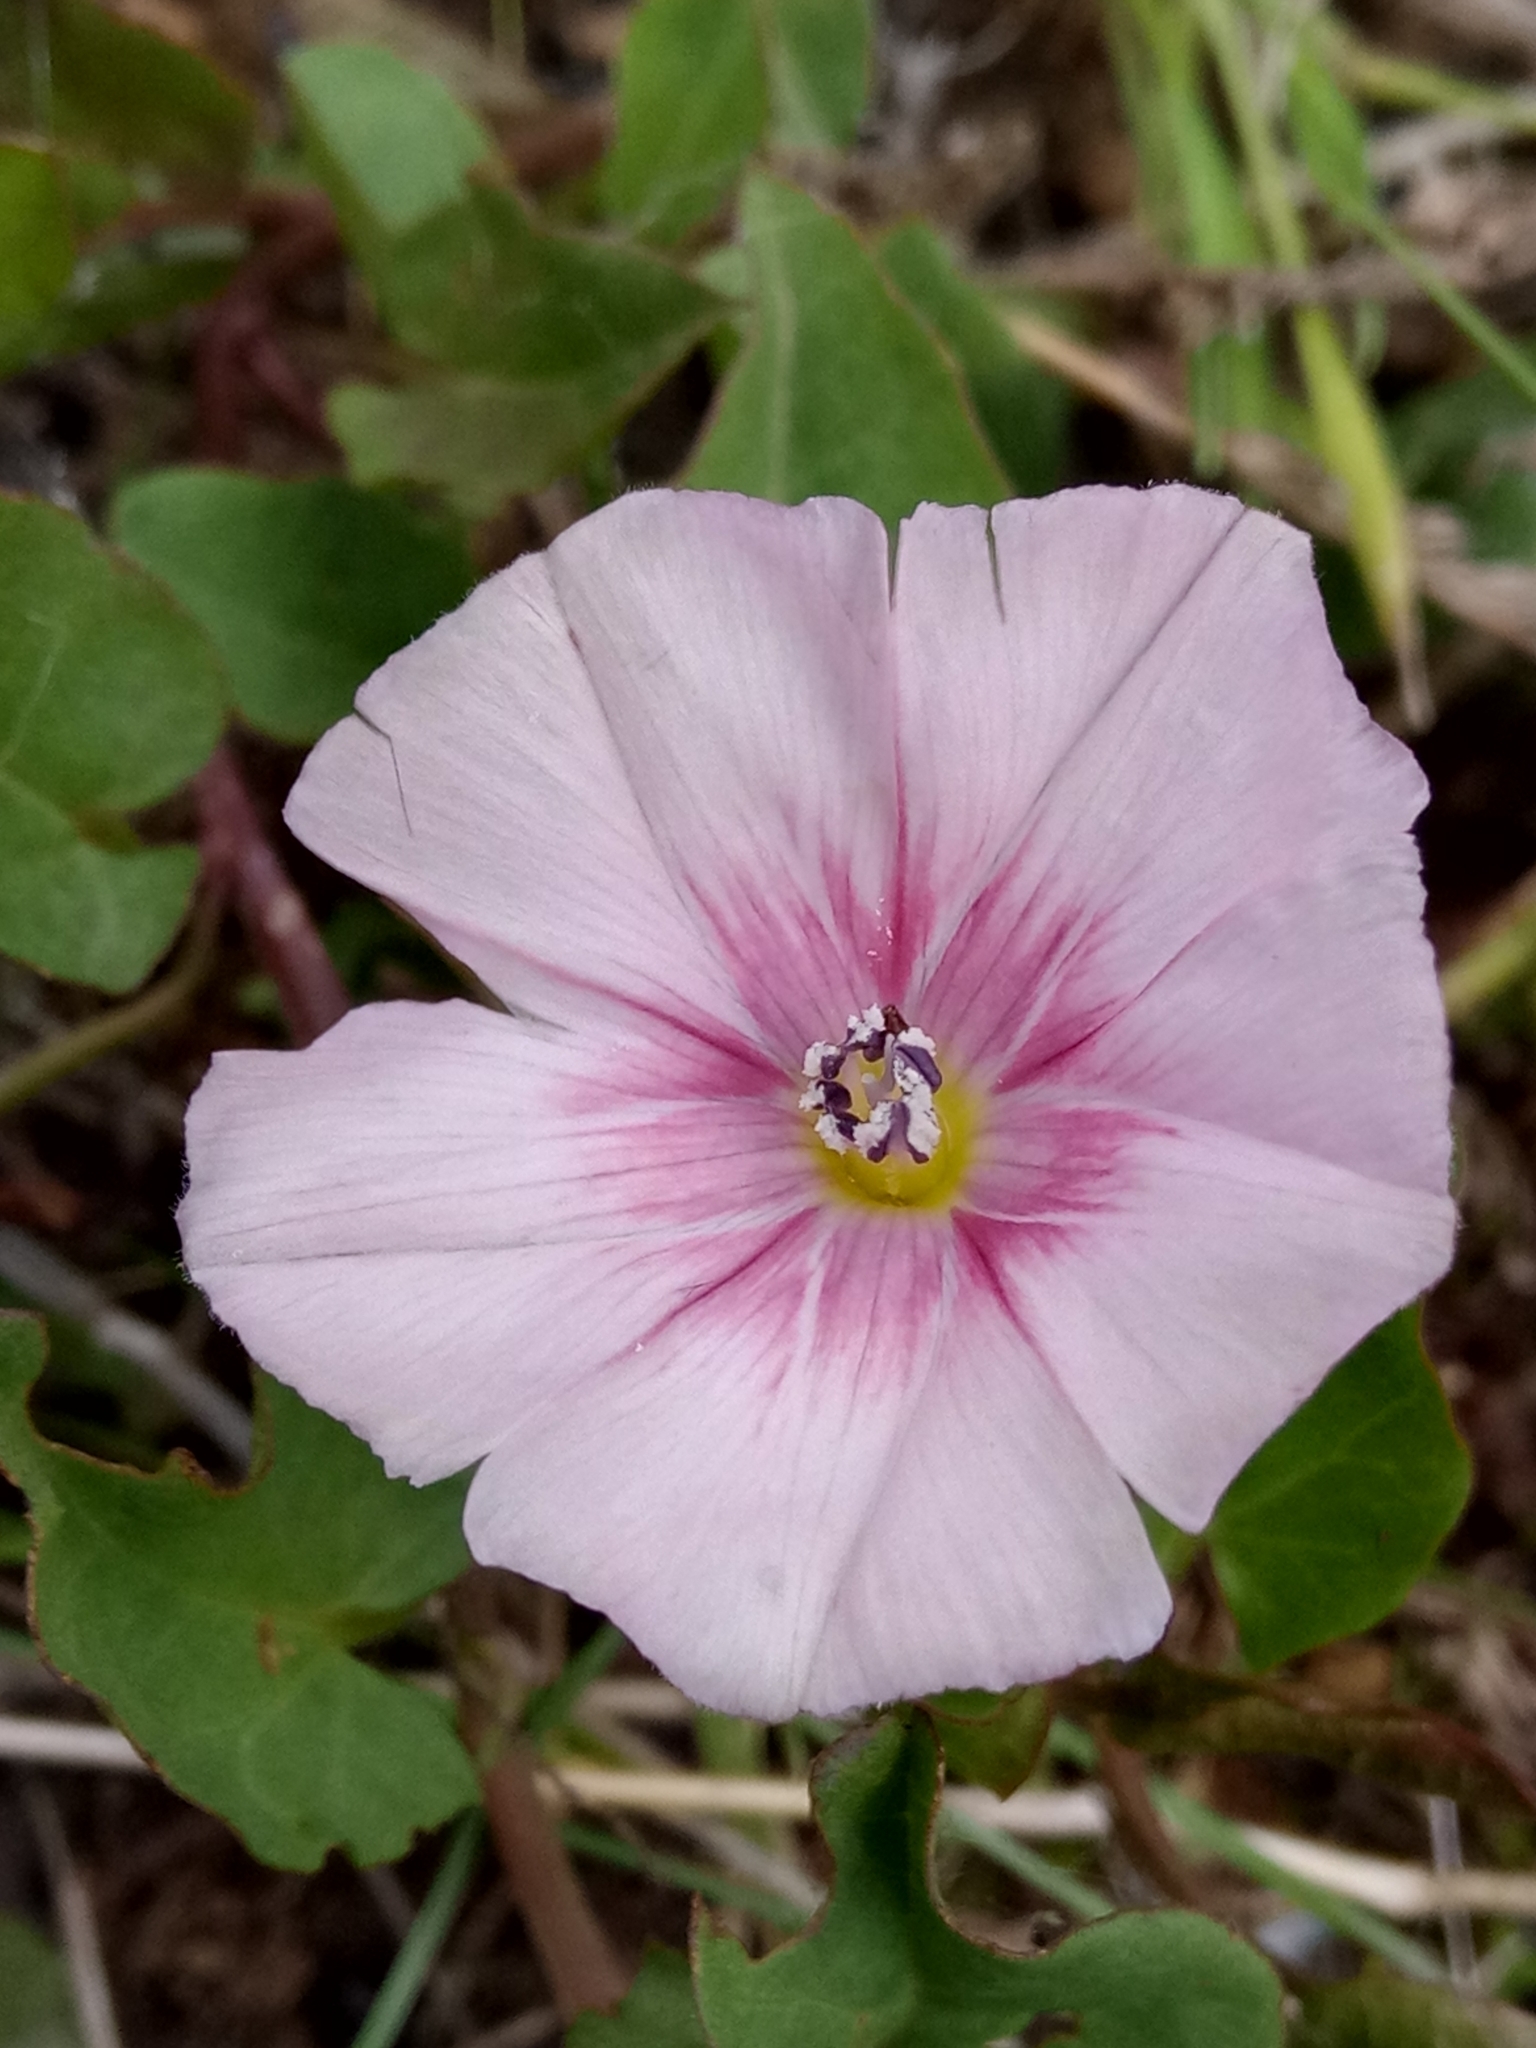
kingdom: Plantae
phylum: Tracheophyta
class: Magnoliopsida
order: Solanales
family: Convolvulaceae
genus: Convolvulus
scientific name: Convolvulus durandoi
